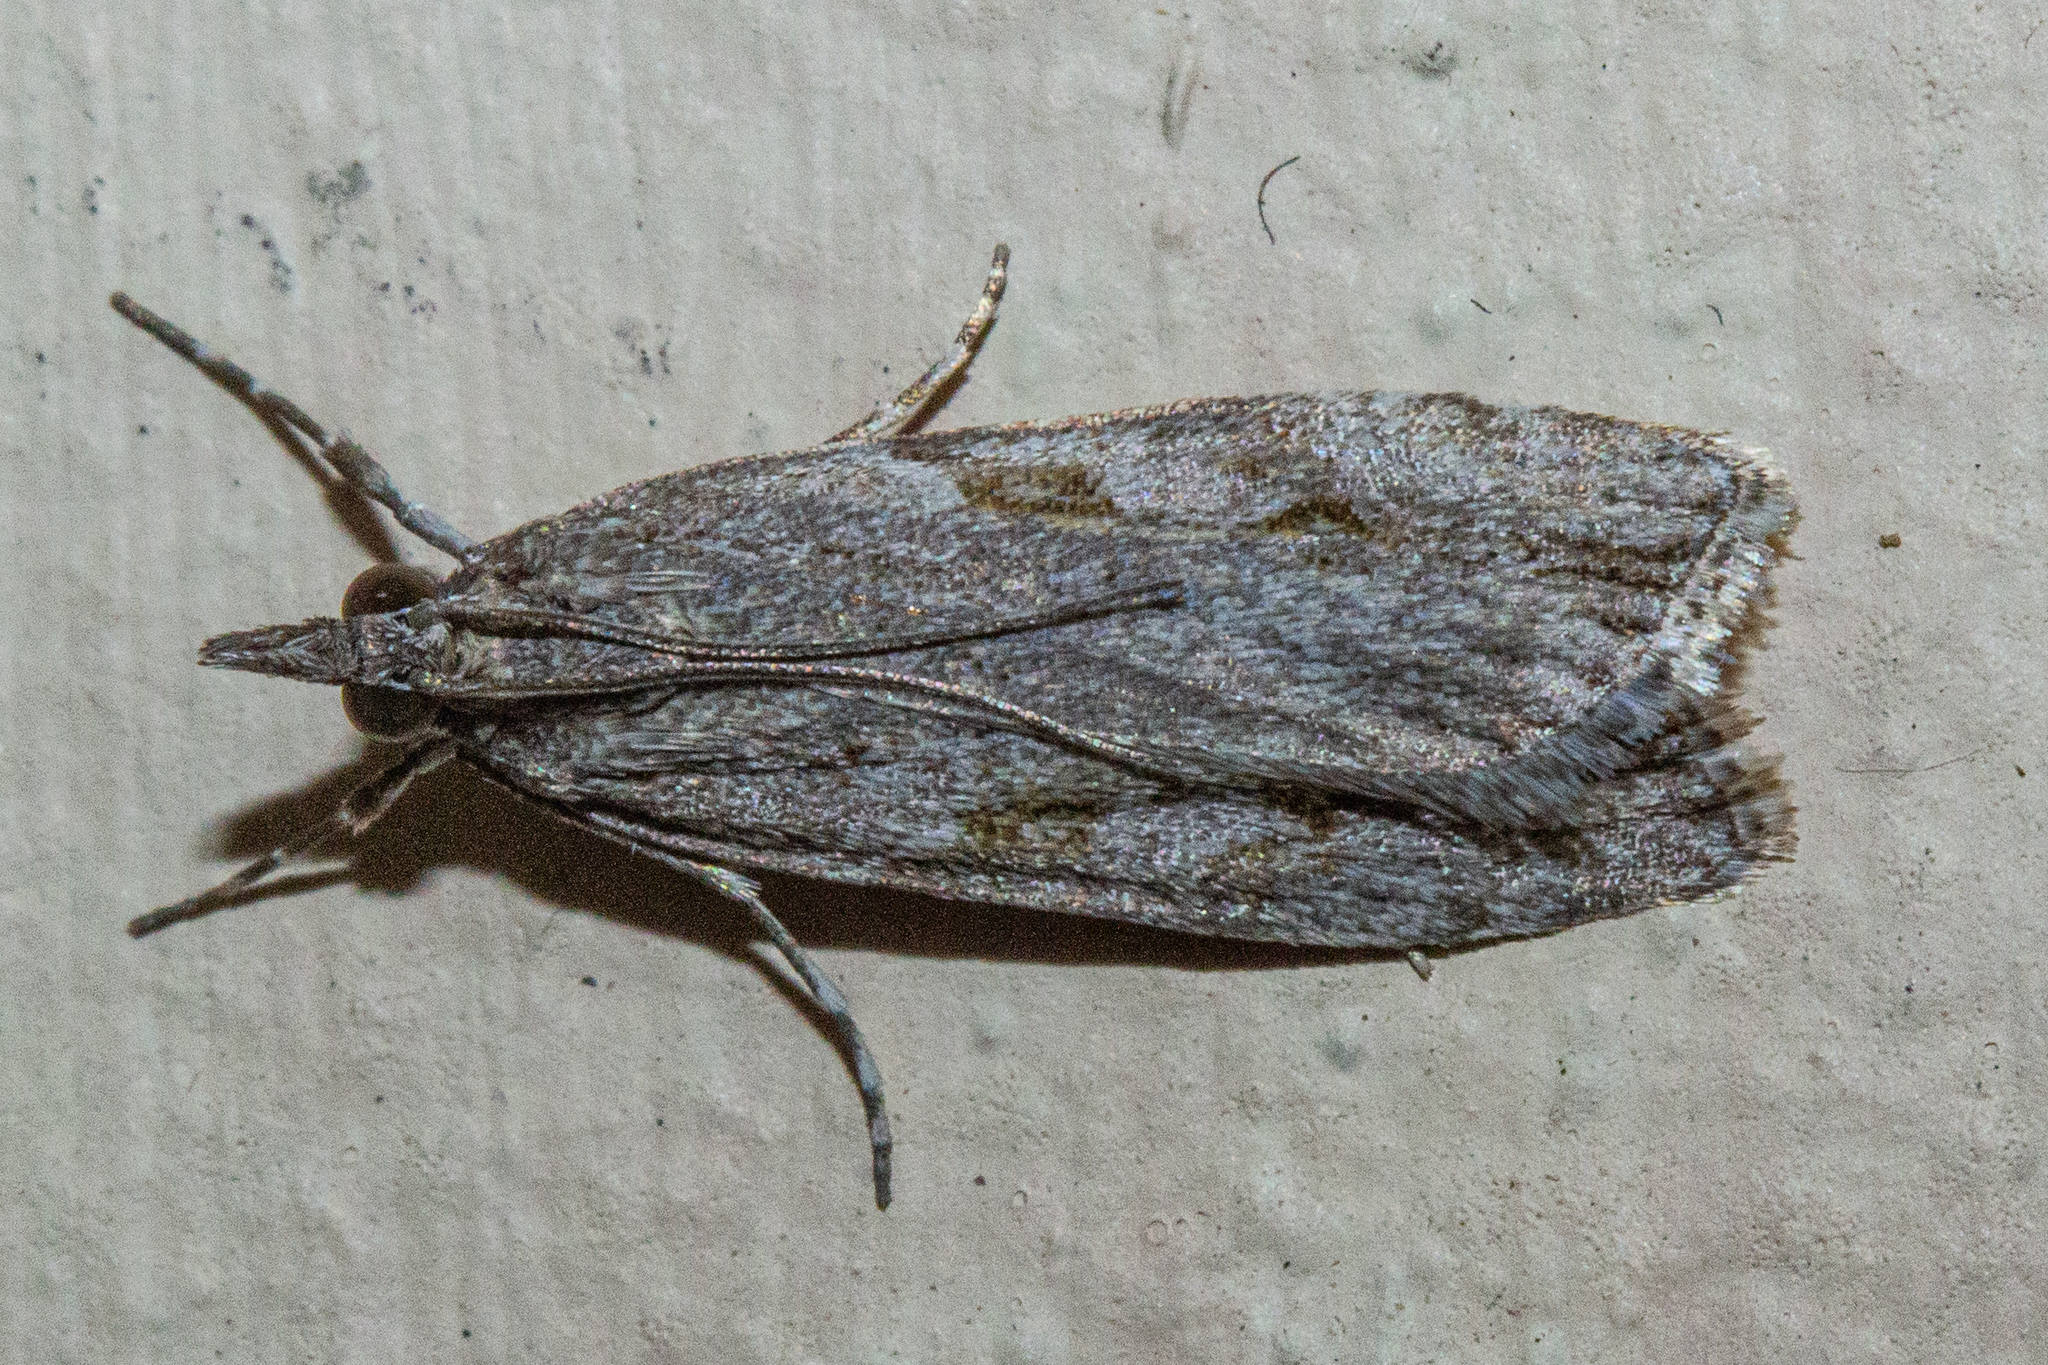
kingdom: Animalia
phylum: Arthropoda
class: Insecta
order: Lepidoptera
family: Crambidae
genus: Eudonia
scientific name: Eudonia cymatias
